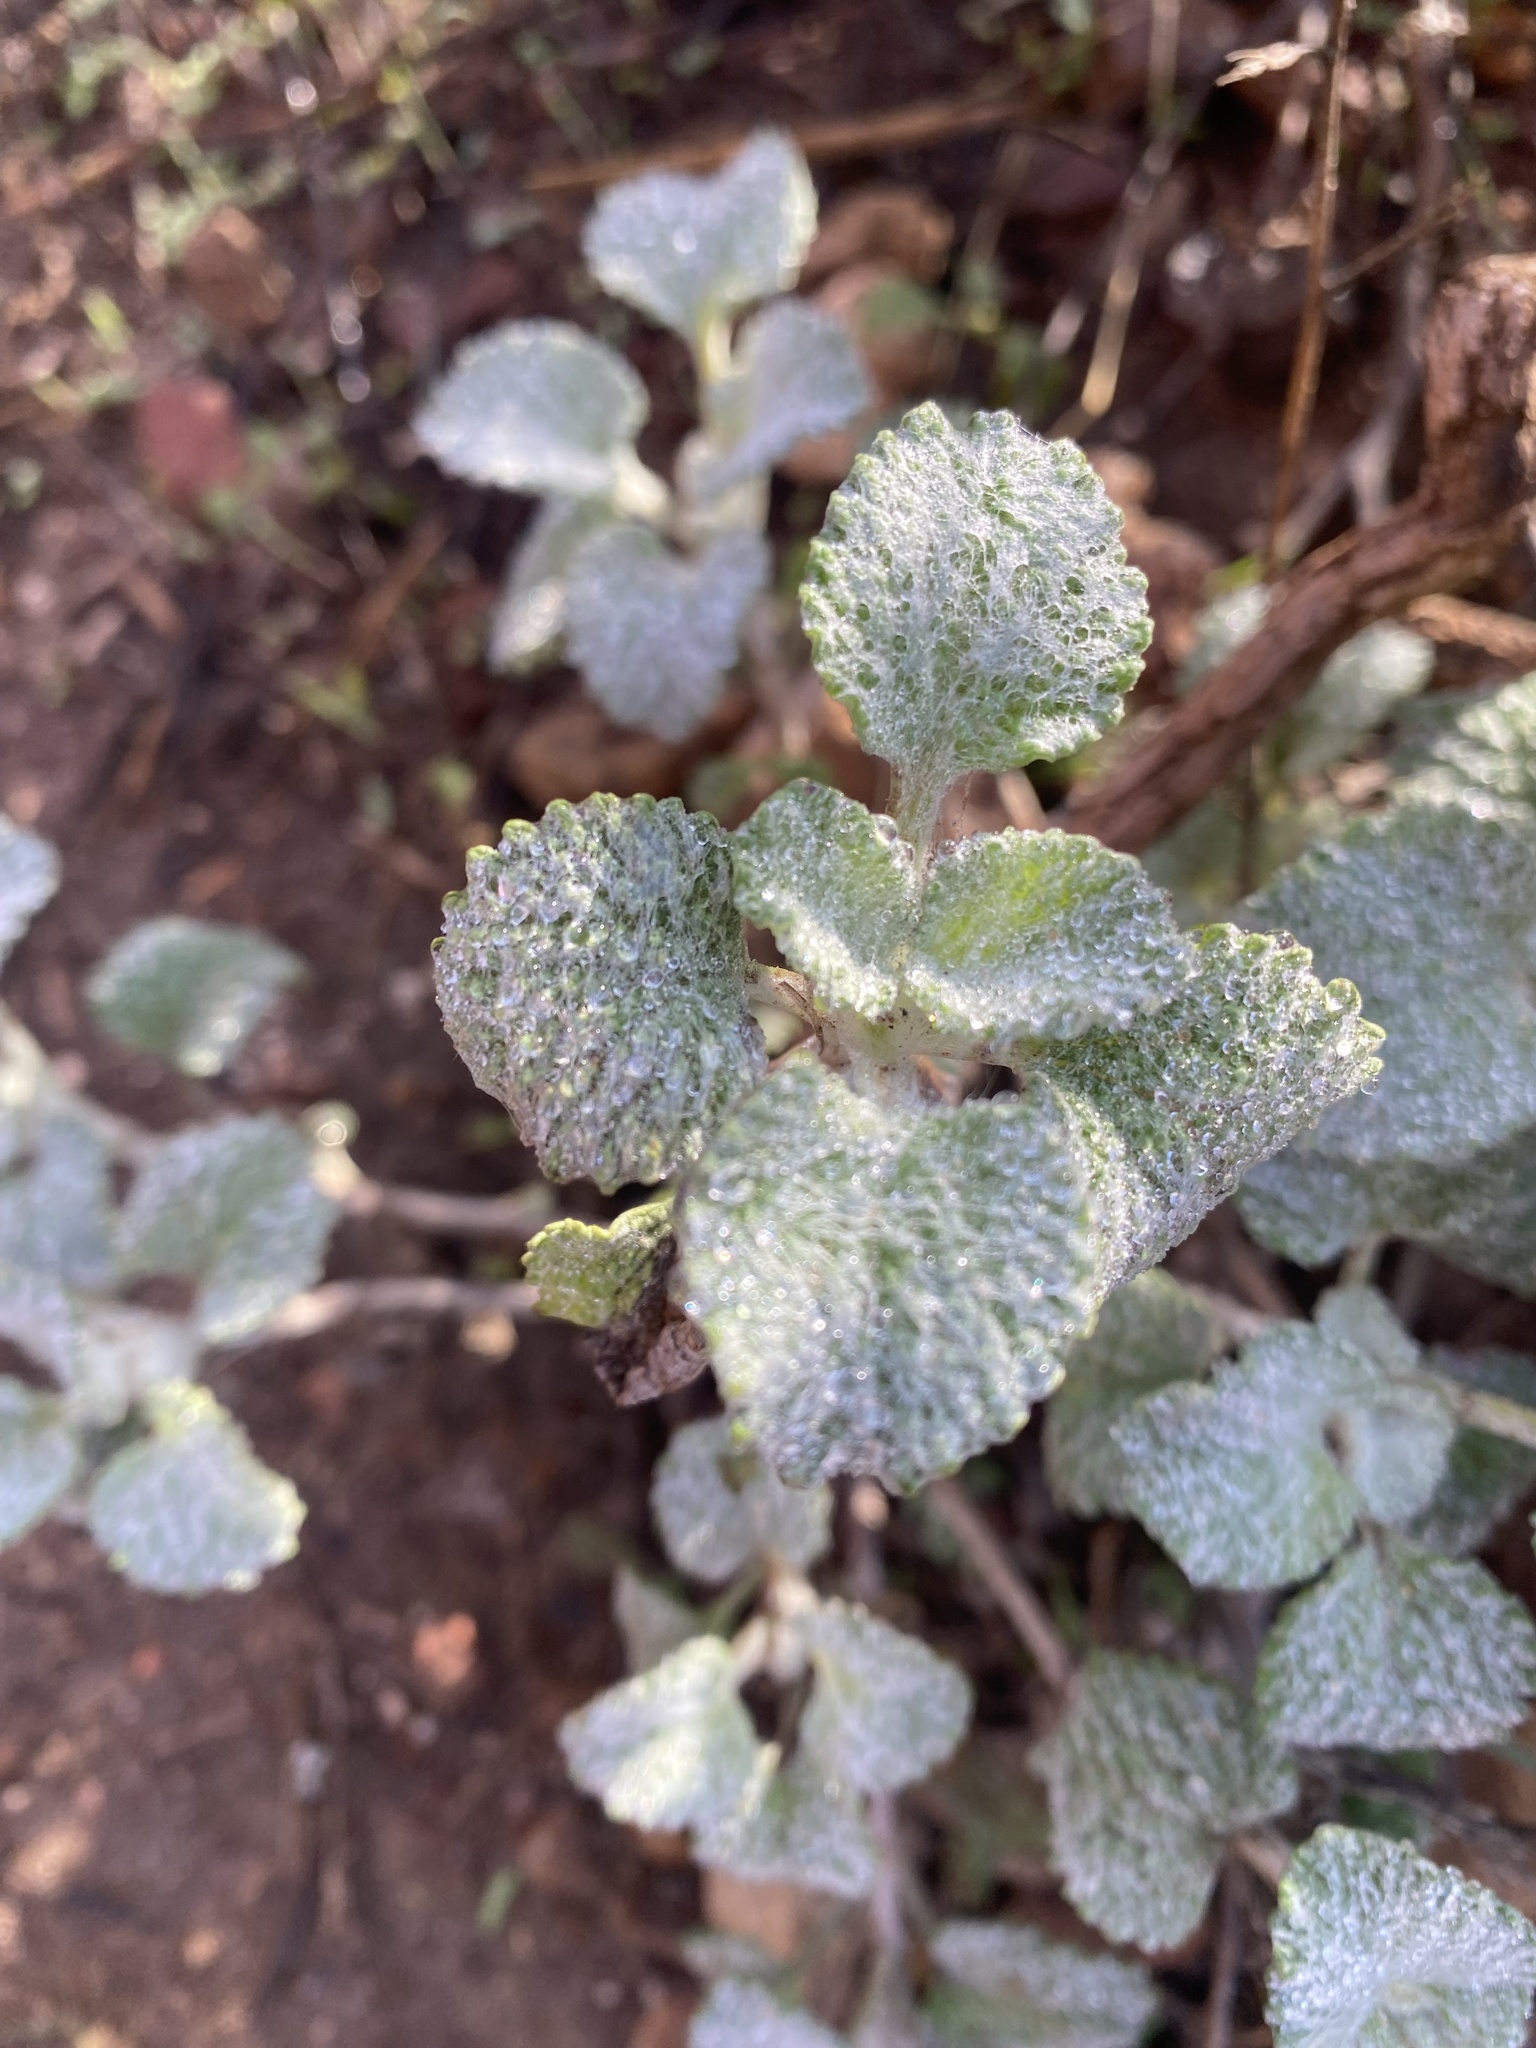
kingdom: Plantae
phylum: Tracheophyta
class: Magnoliopsida
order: Lamiales
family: Lamiaceae
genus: Marrubium
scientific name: Marrubium vulgare
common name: Horehound
